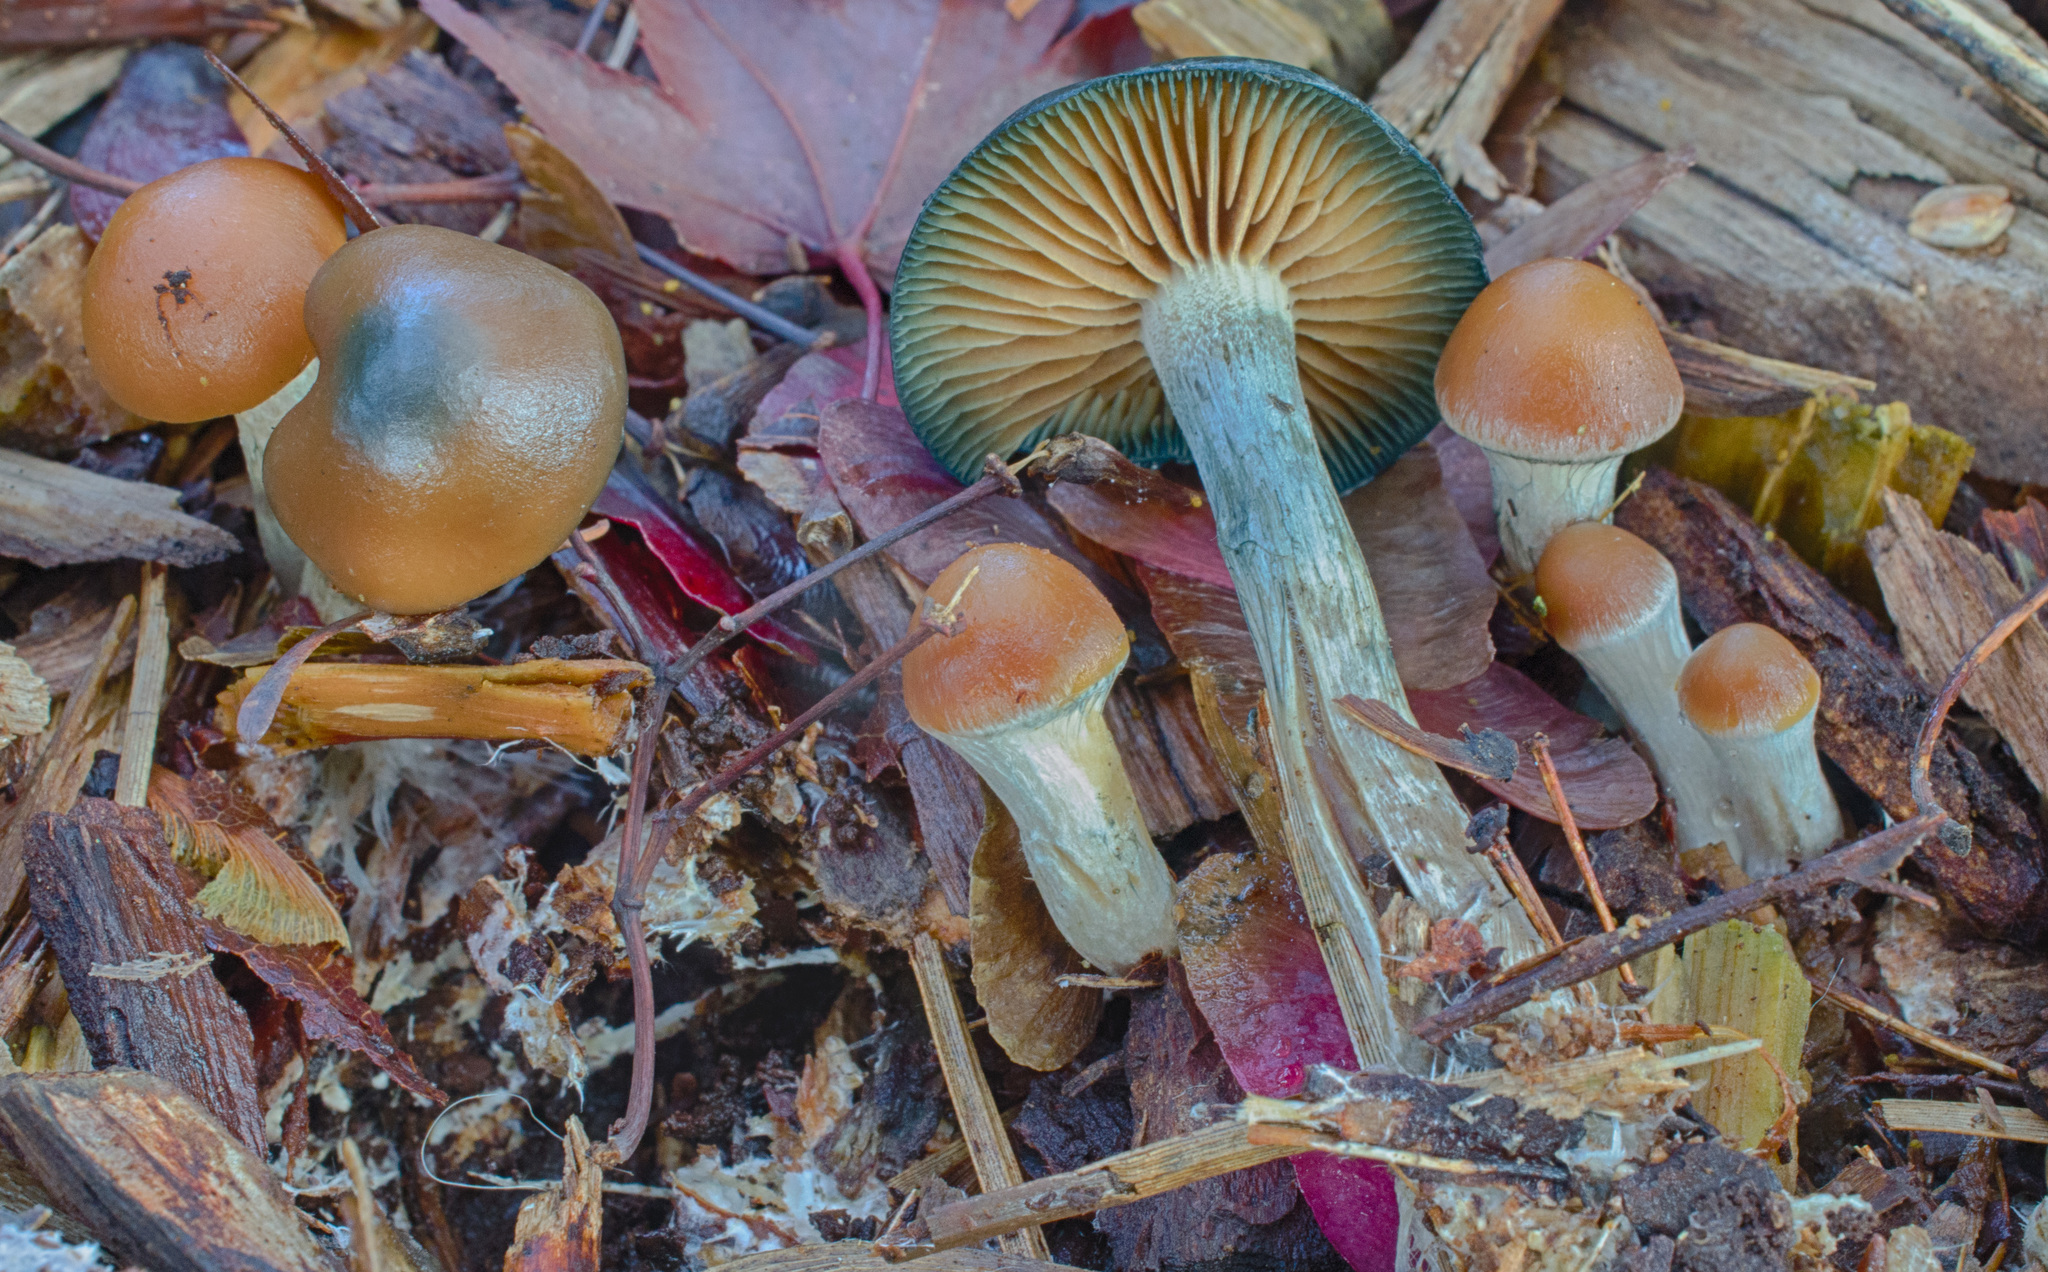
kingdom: Fungi
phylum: Basidiomycota
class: Agaricomycetes
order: Agaricales
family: Hymenogastraceae
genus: Psilocybe
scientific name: Psilocybe cyanescens
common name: Blueleg brownie
